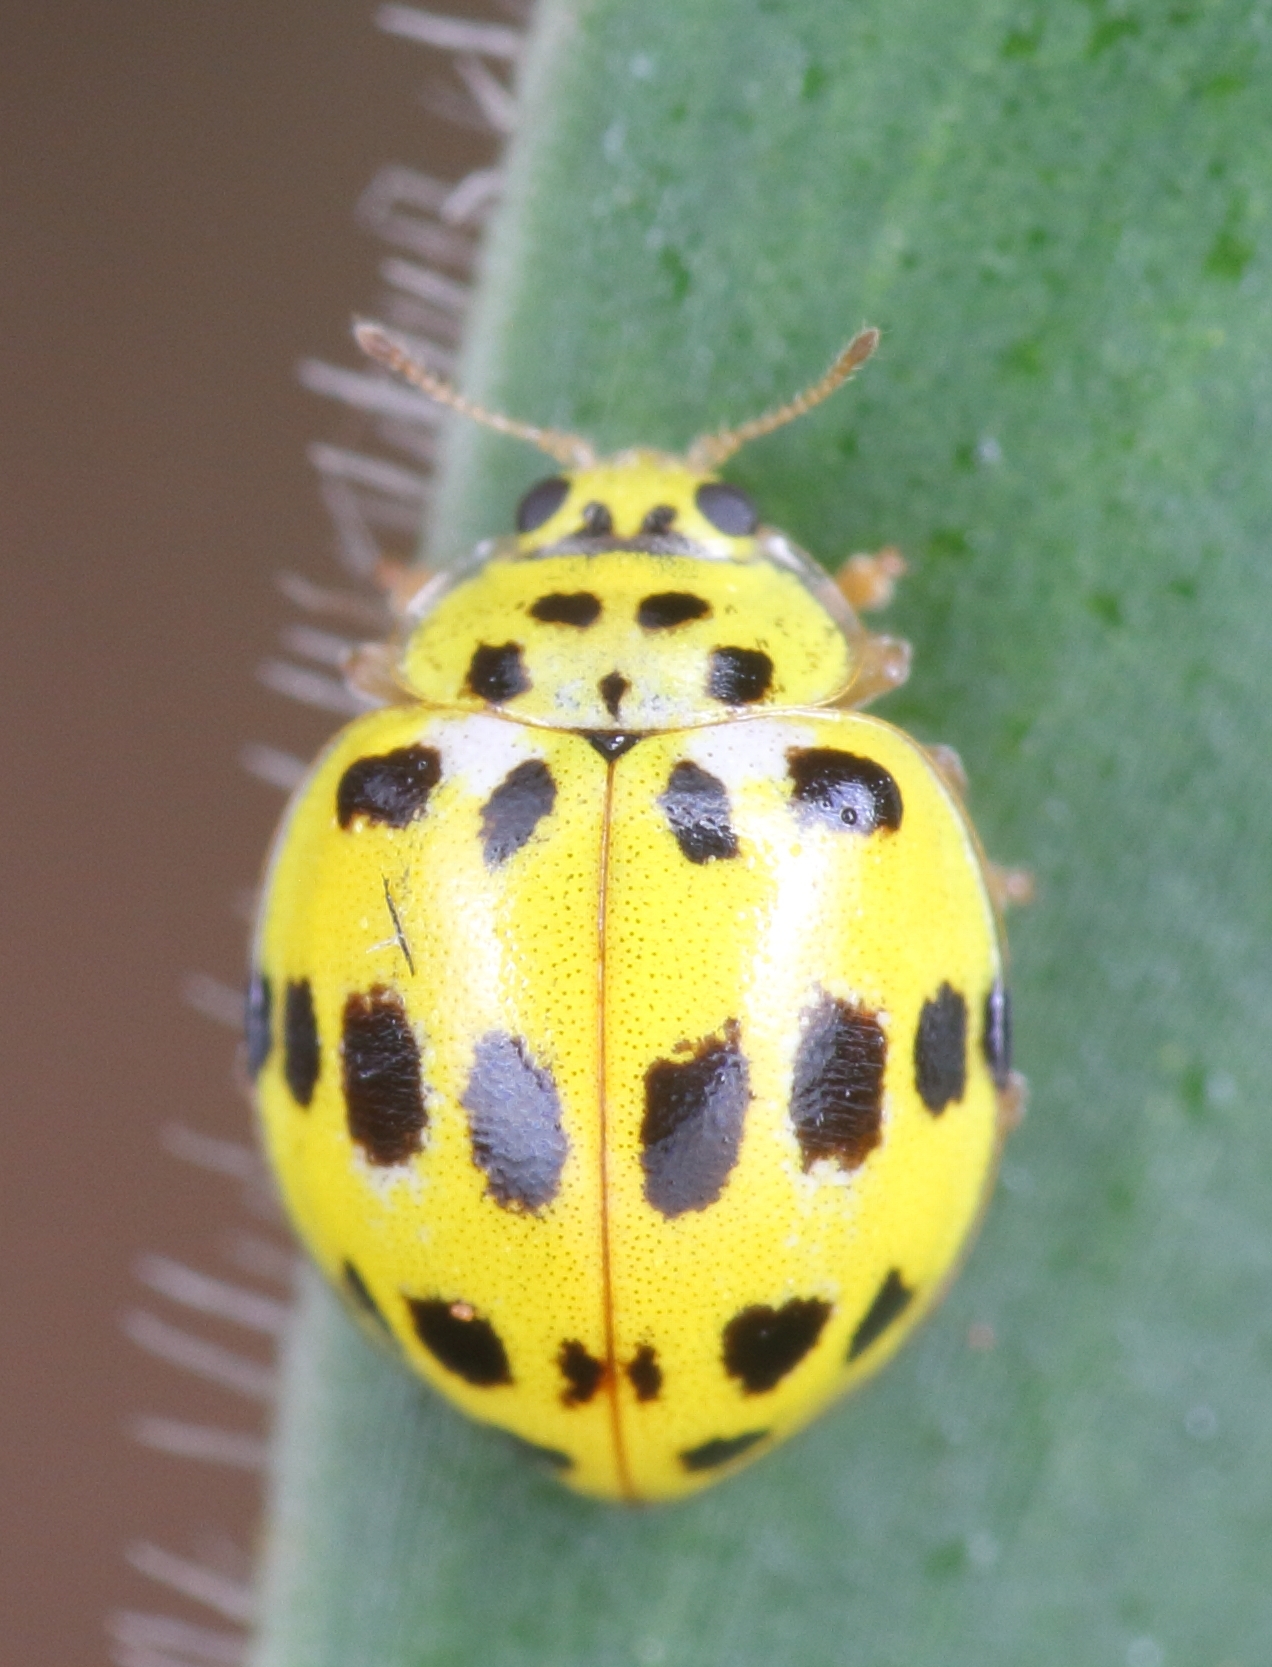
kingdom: Animalia
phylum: Arthropoda
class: Insecta
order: Coleoptera
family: Coccinellidae
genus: Psyllobora
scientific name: Psyllobora variegata
